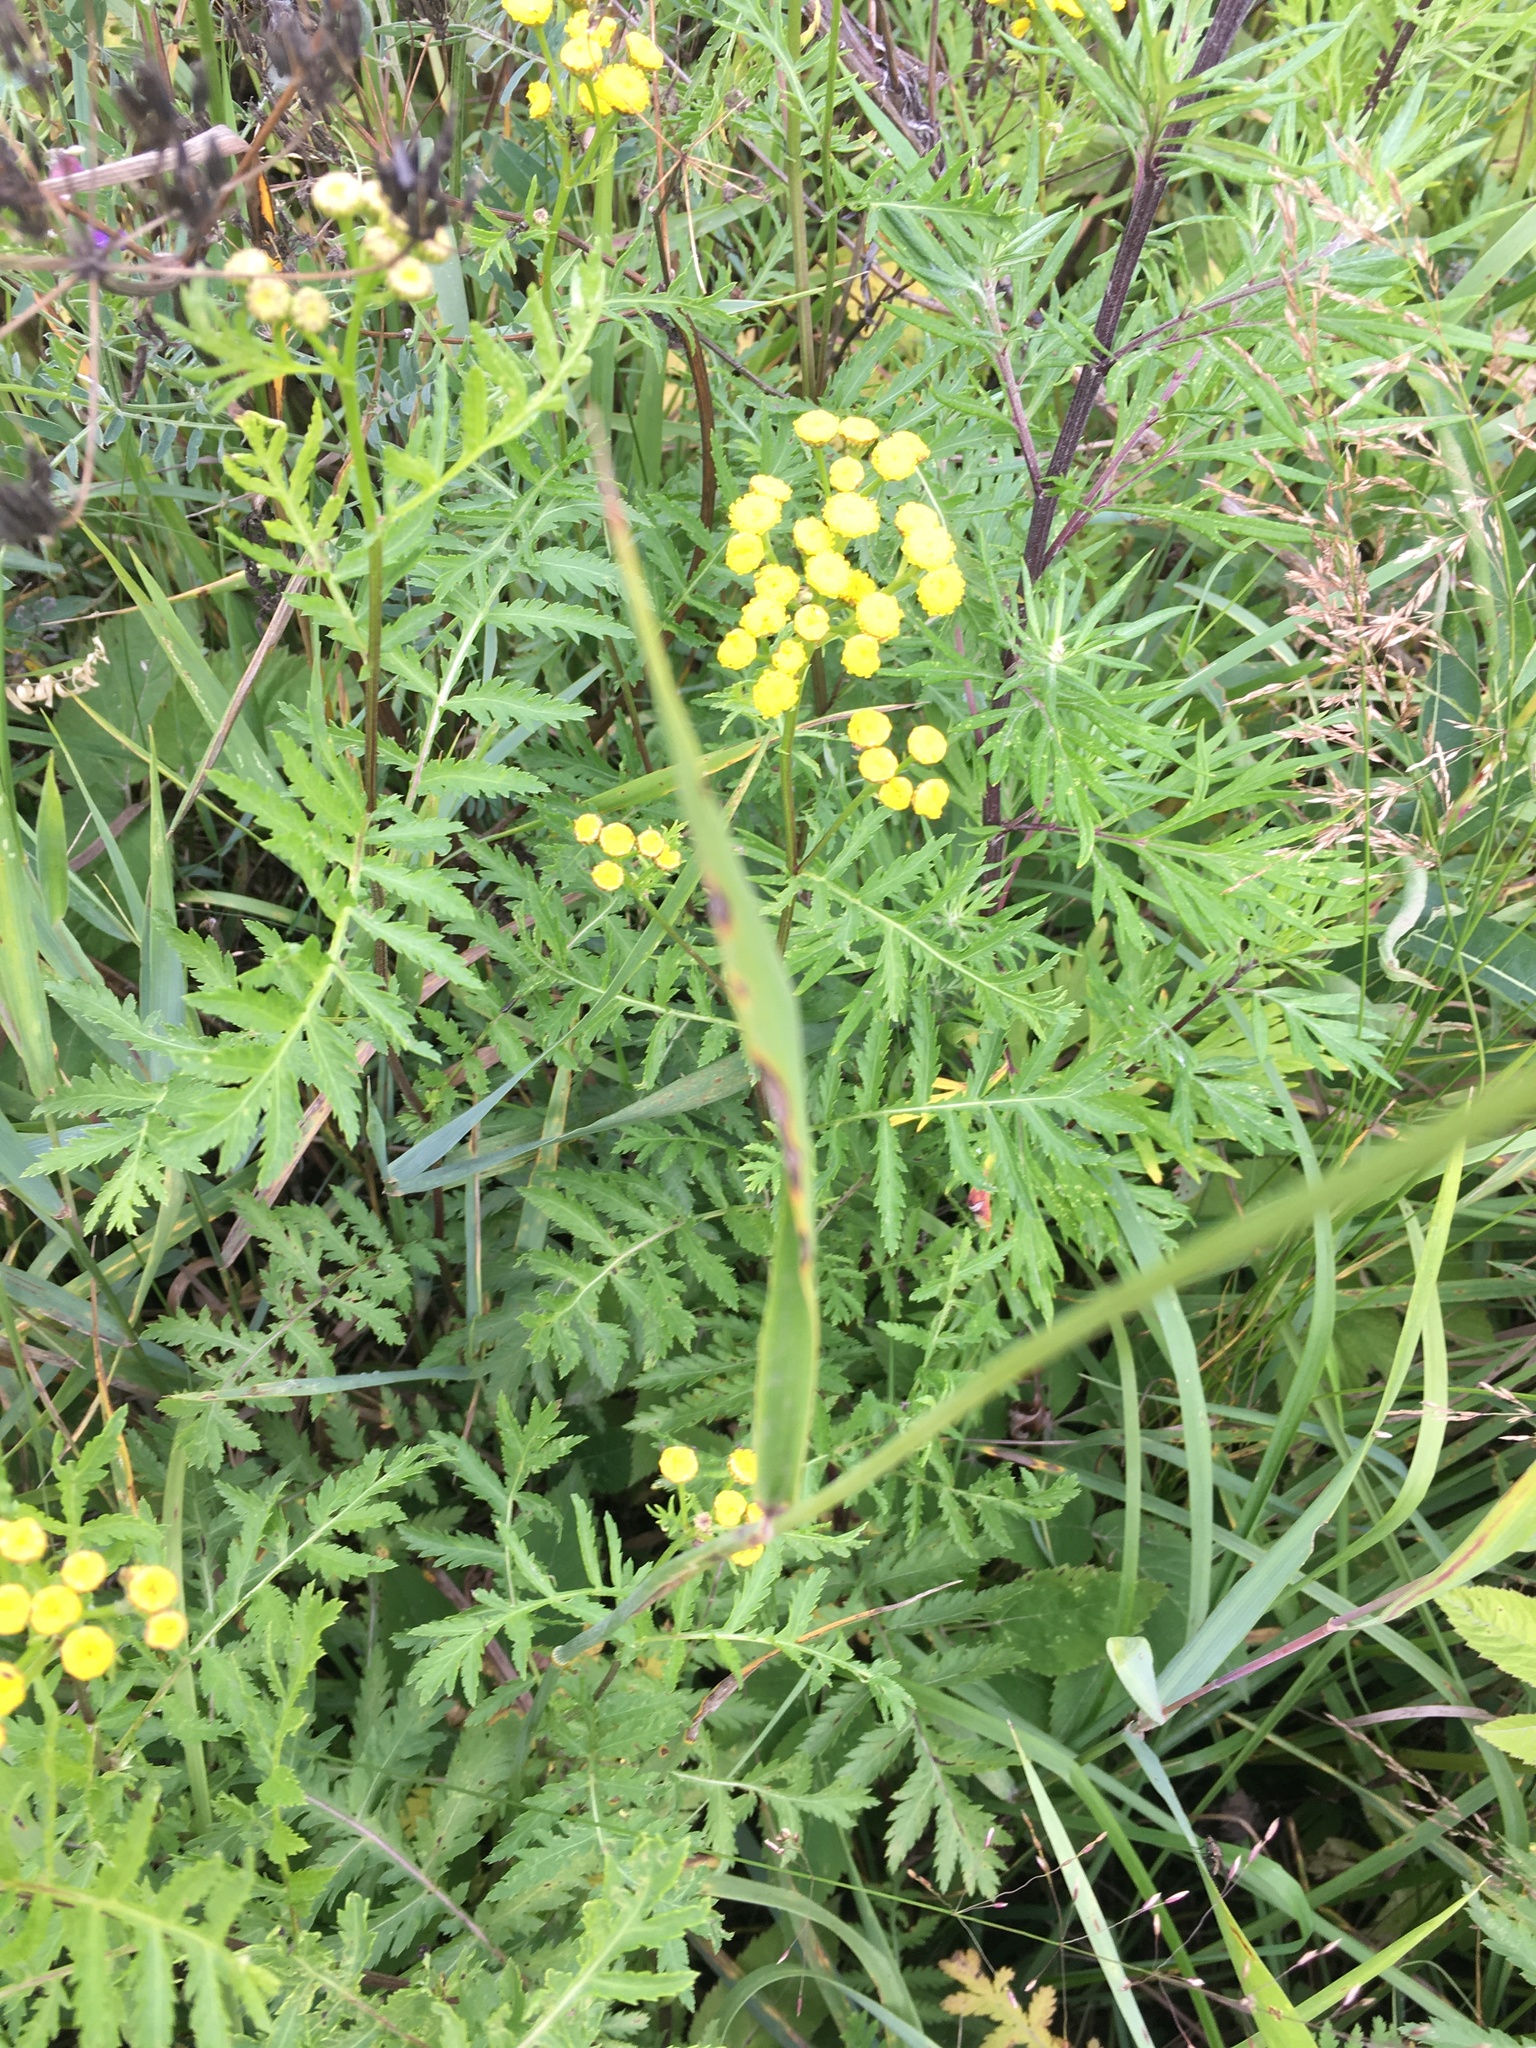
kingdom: Plantae
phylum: Tracheophyta
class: Liliopsida
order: Poales
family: Poaceae
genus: Alopecurus
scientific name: Alopecurus pratensis
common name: Meadow foxtail
